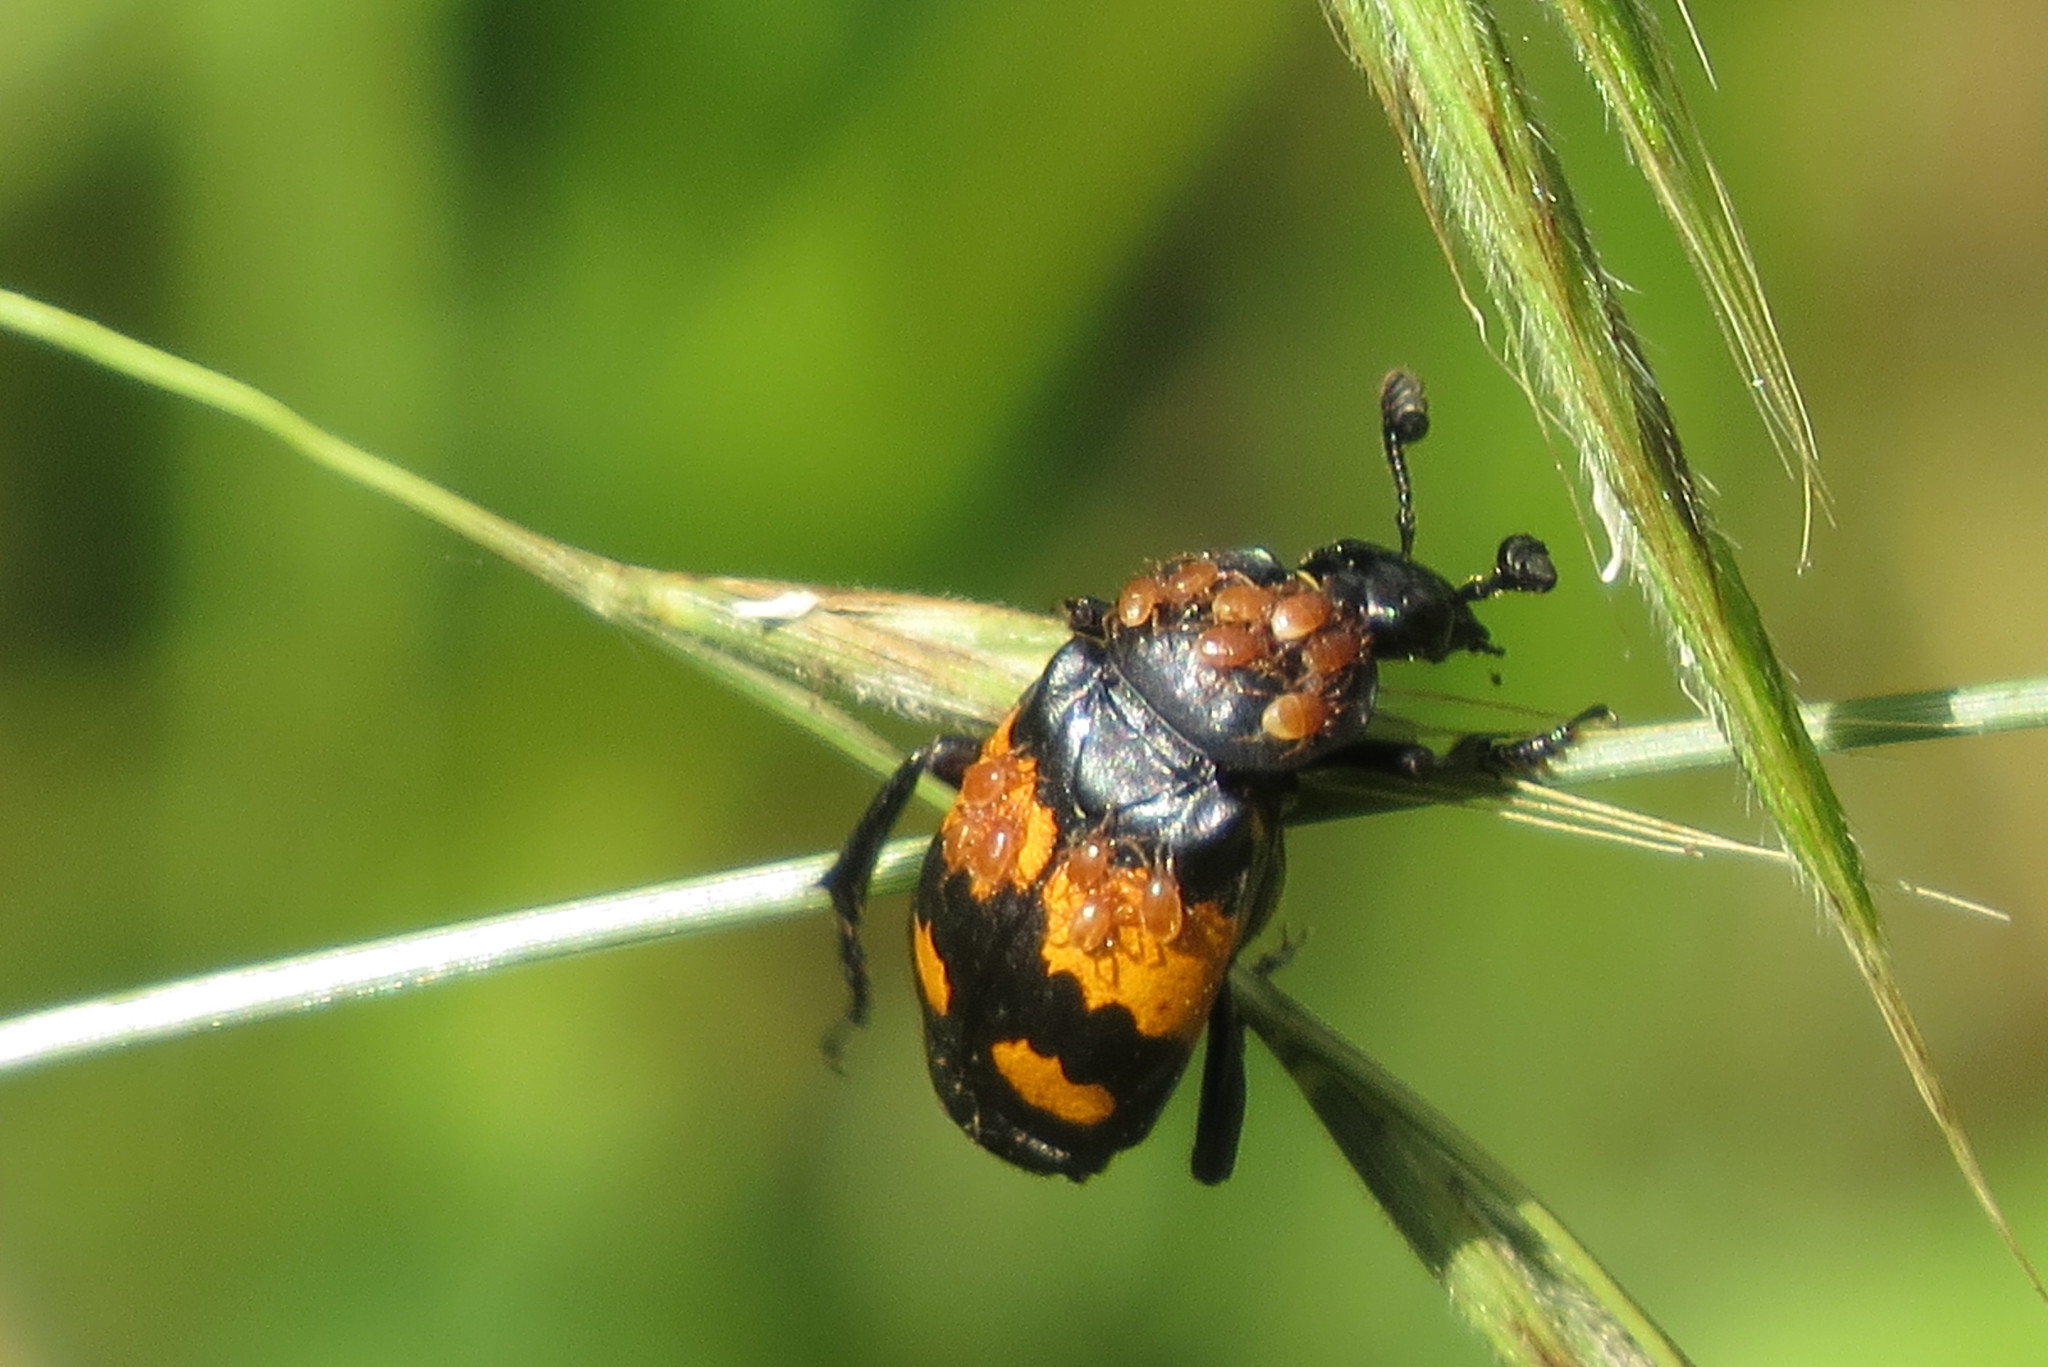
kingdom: Animalia
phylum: Arthropoda
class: Insecta
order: Coleoptera
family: Staphylinidae
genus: Nicrophorus
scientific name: Nicrophorus vespilloides
